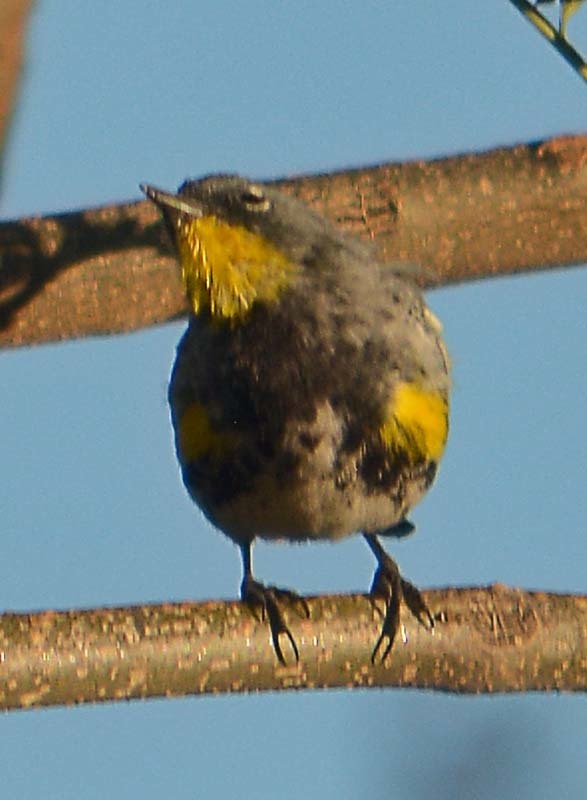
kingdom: Animalia
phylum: Chordata
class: Aves
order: Passeriformes
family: Parulidae
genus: Setophaga
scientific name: Setophaga coronata
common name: Myrtle warbler
